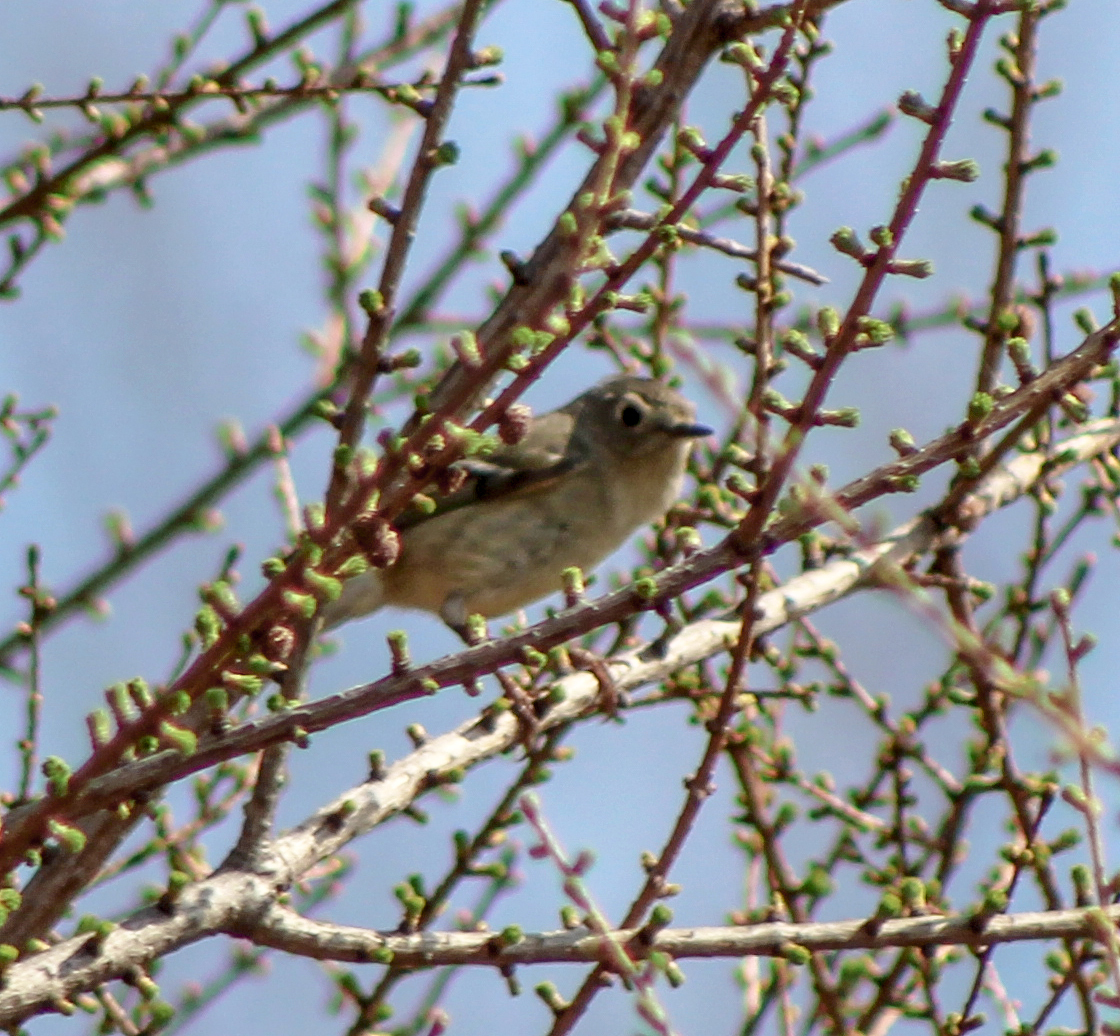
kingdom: Animalia
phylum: Chordata
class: Aves
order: Passeriformes
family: Regulidae
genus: Regulus
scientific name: Regulus calendula
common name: Ruby-crowned kinglet
